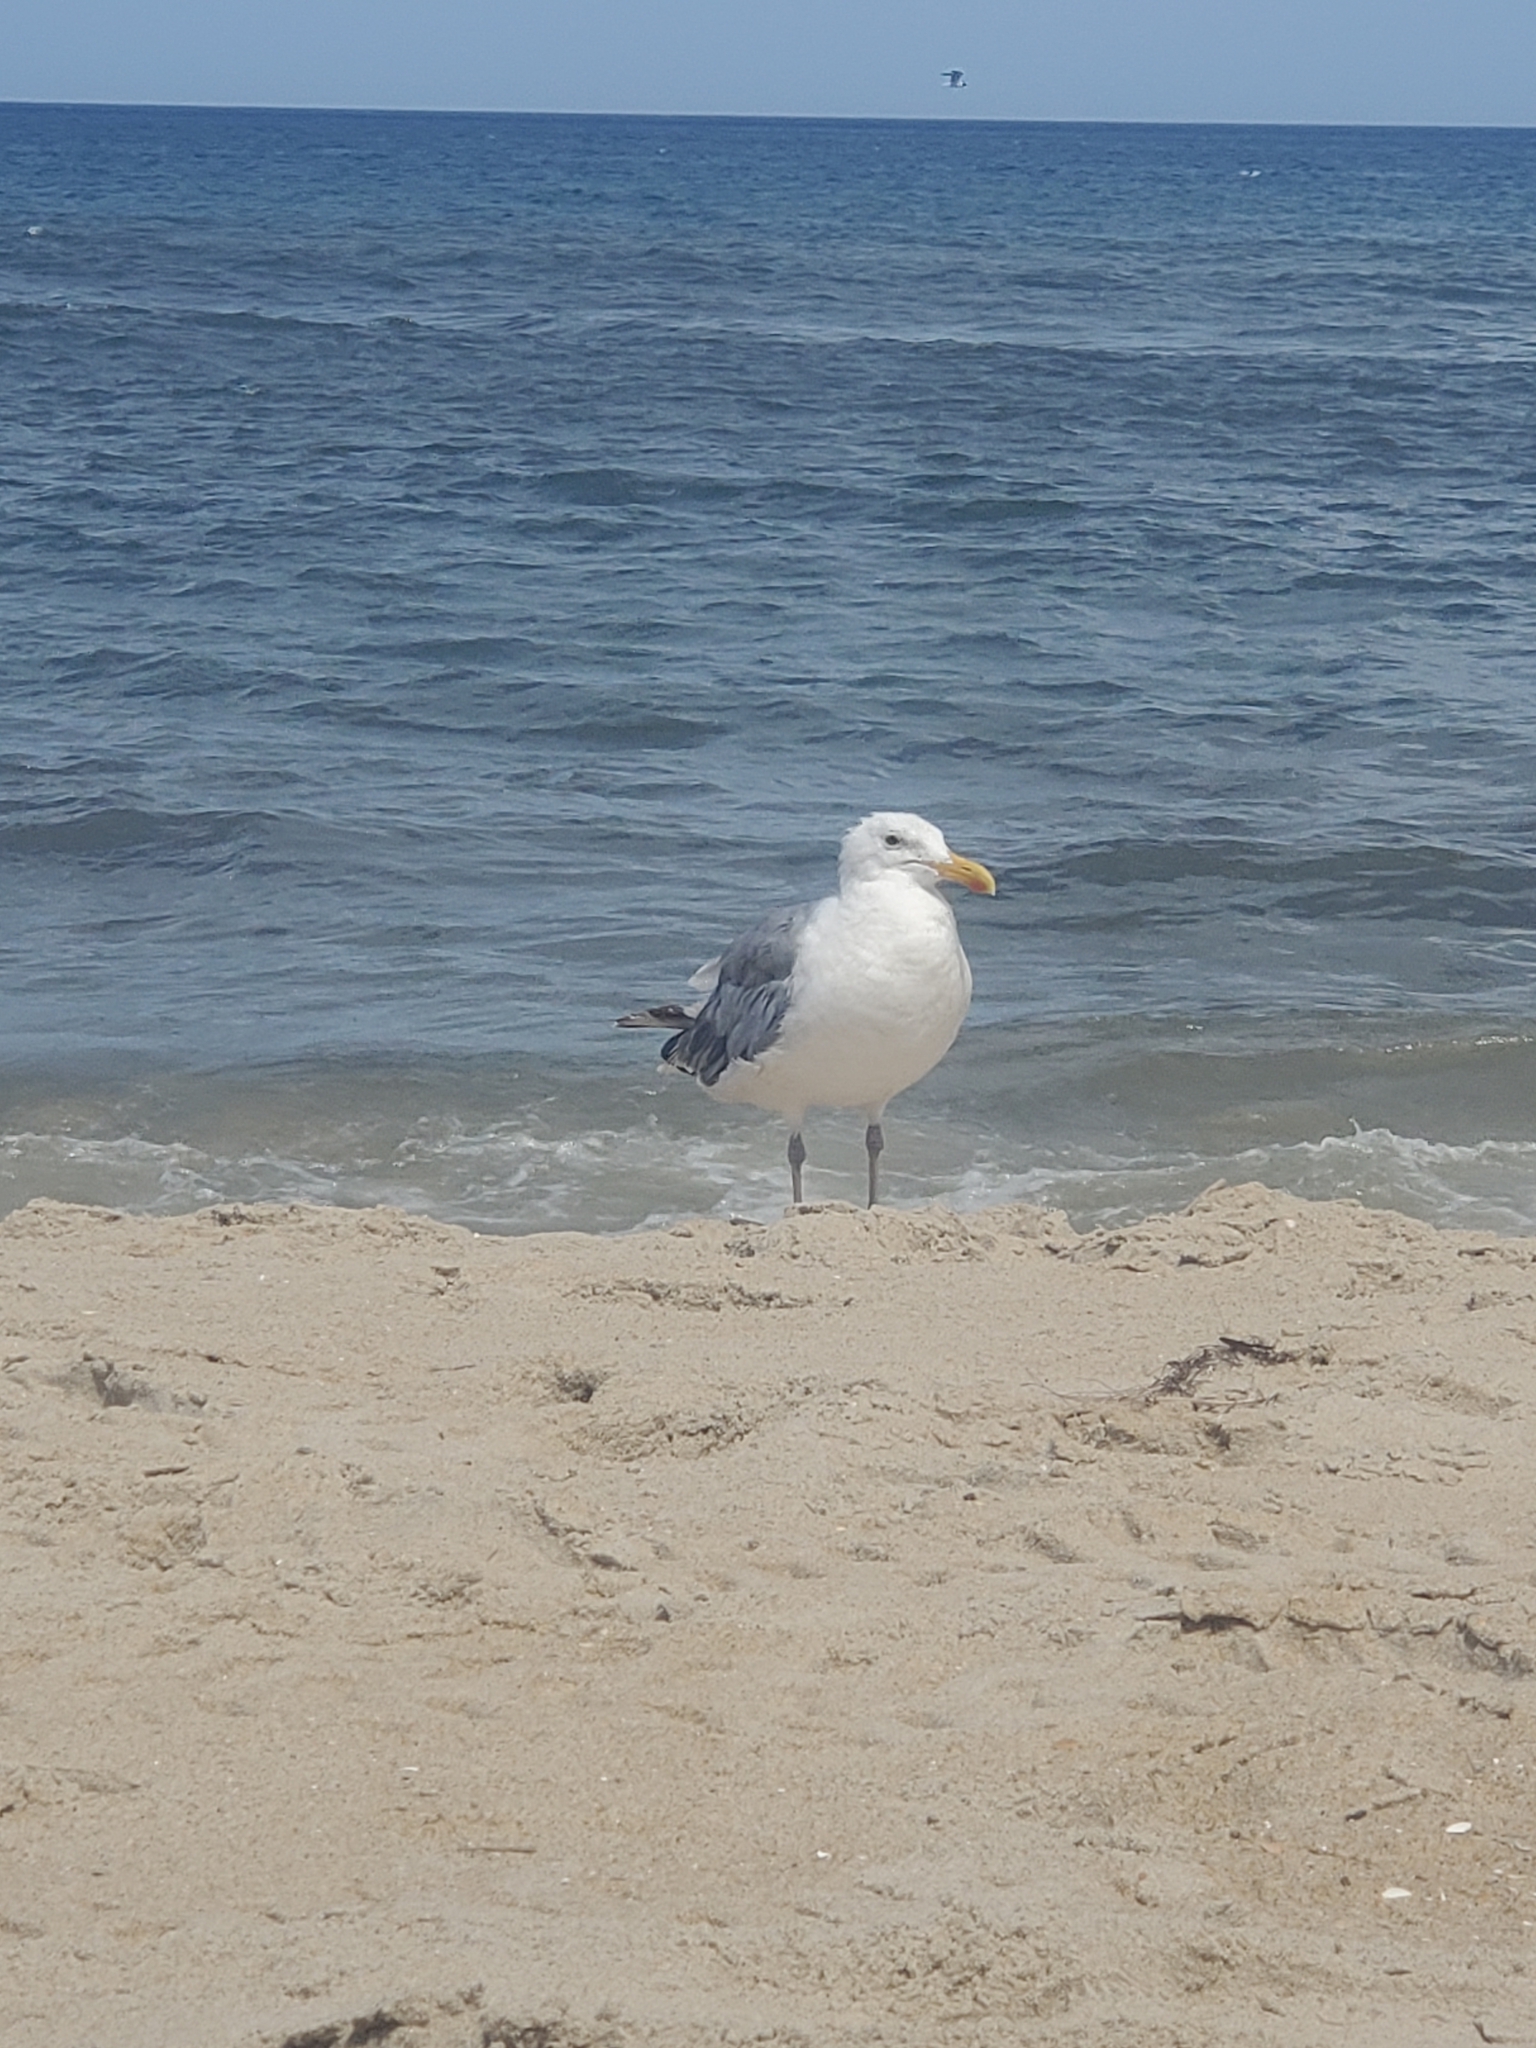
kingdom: Animalia
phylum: Chordata
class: Aves
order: Charadriiformes
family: Laridae
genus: Larus
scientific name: Larus argentatus
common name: Herring gull
